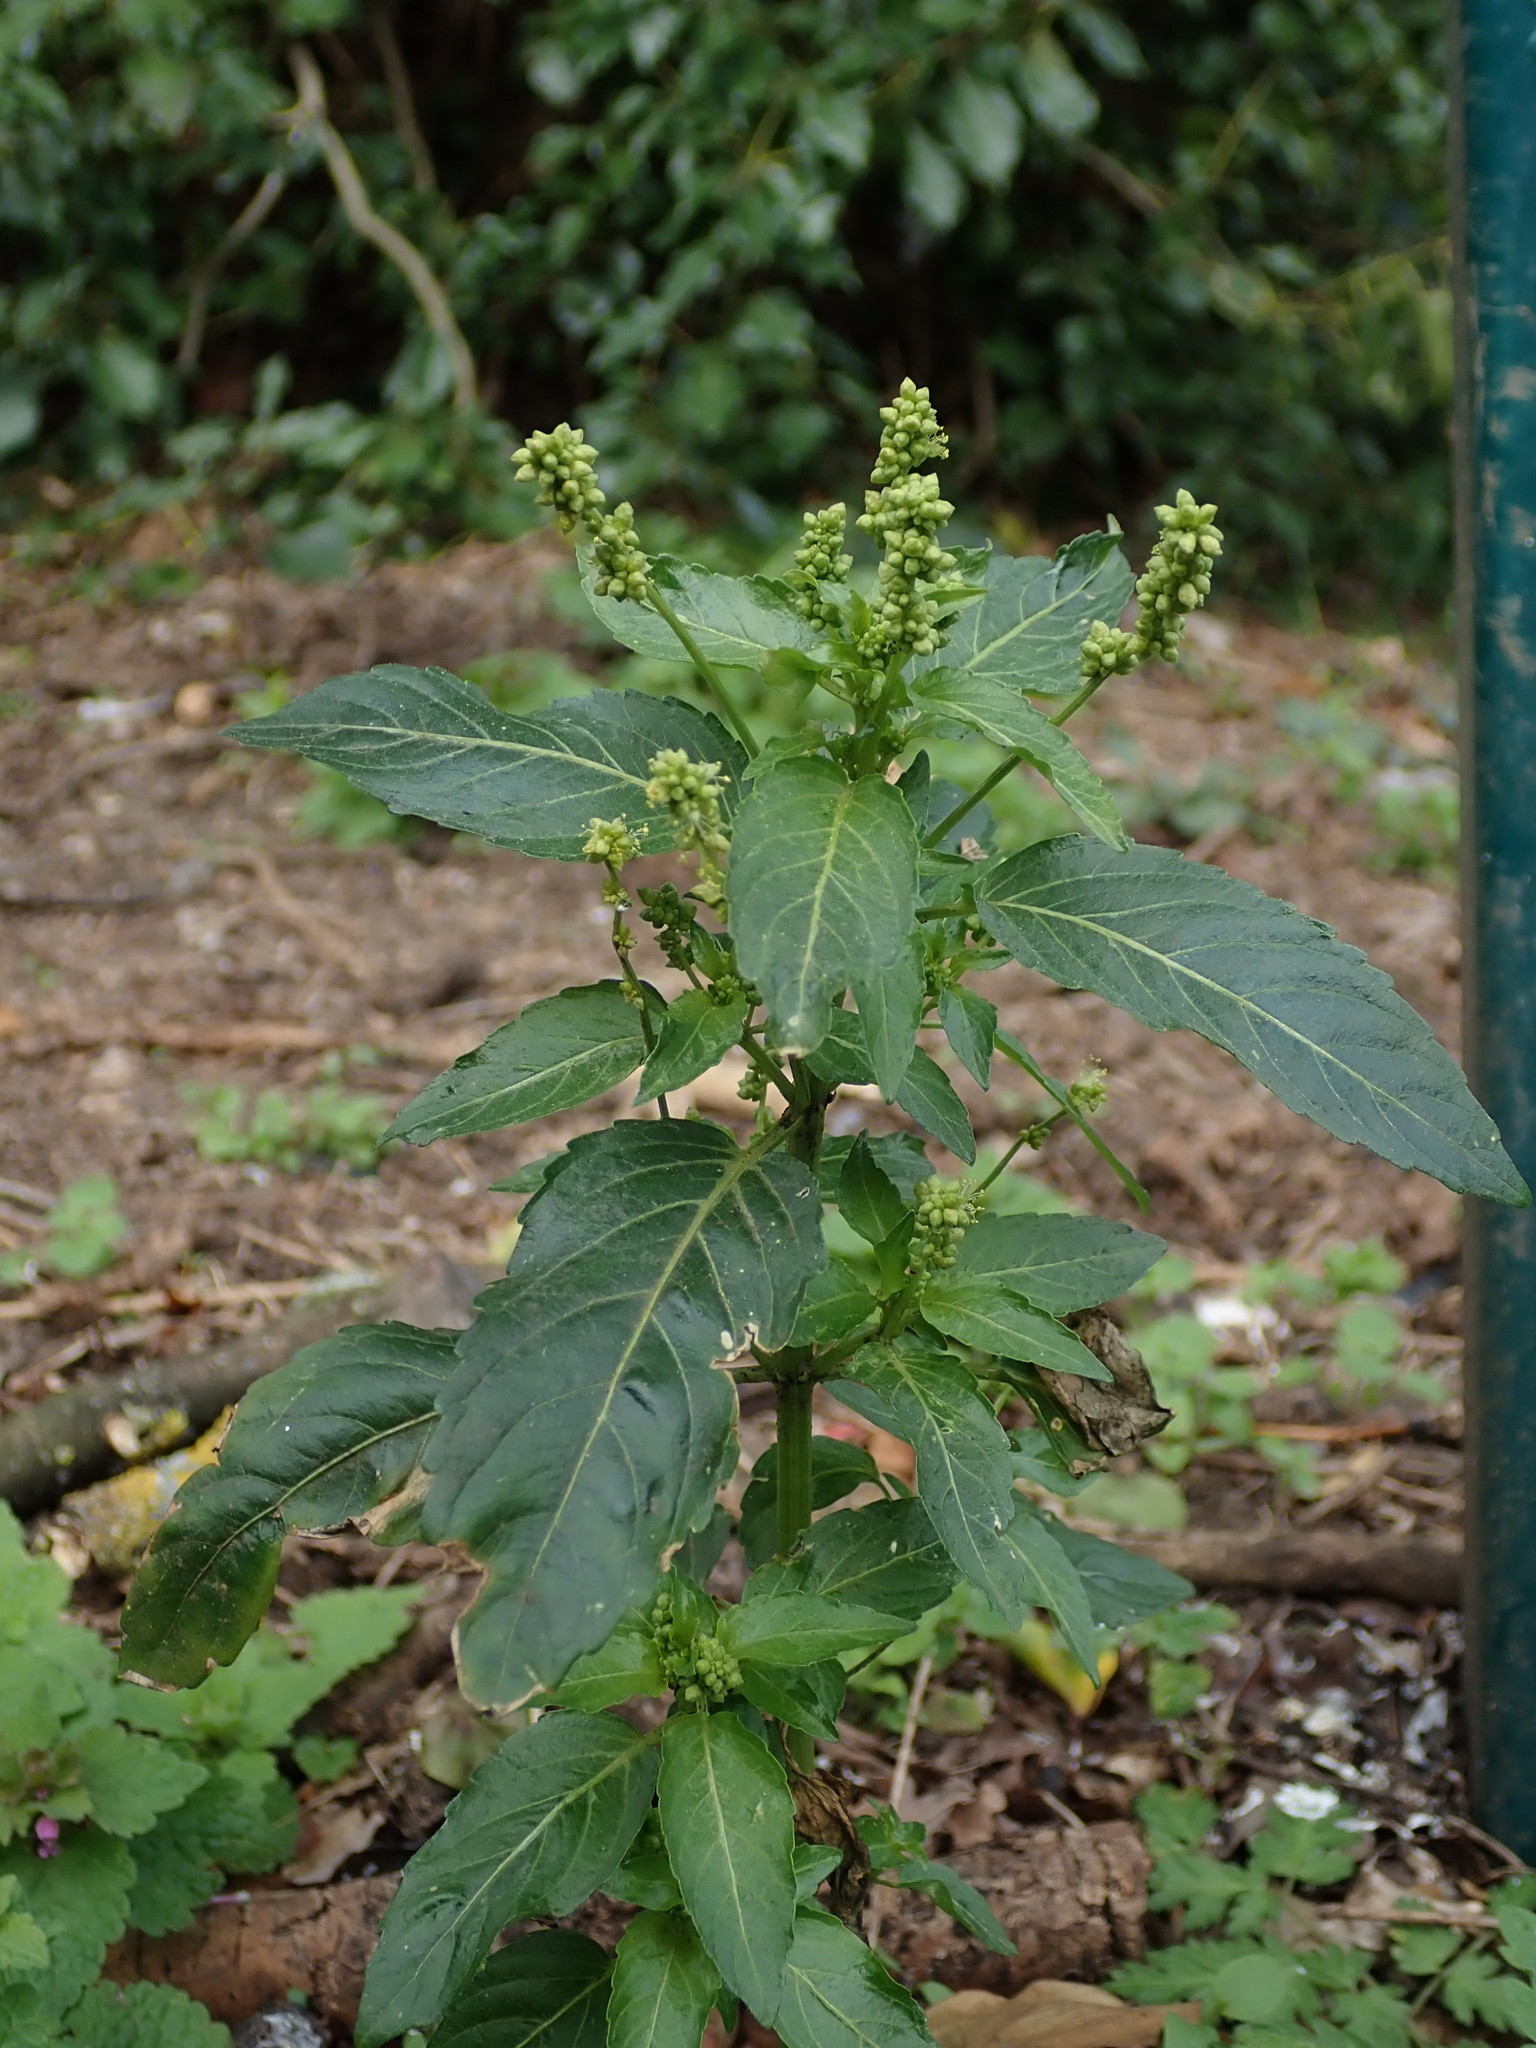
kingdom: Plantae
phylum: Tracheophyta
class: Magnoliopsida
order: Malpighiales
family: Euphorbiaceae
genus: Mercurialis
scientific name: Mercurialis annua
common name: Annual mercury
